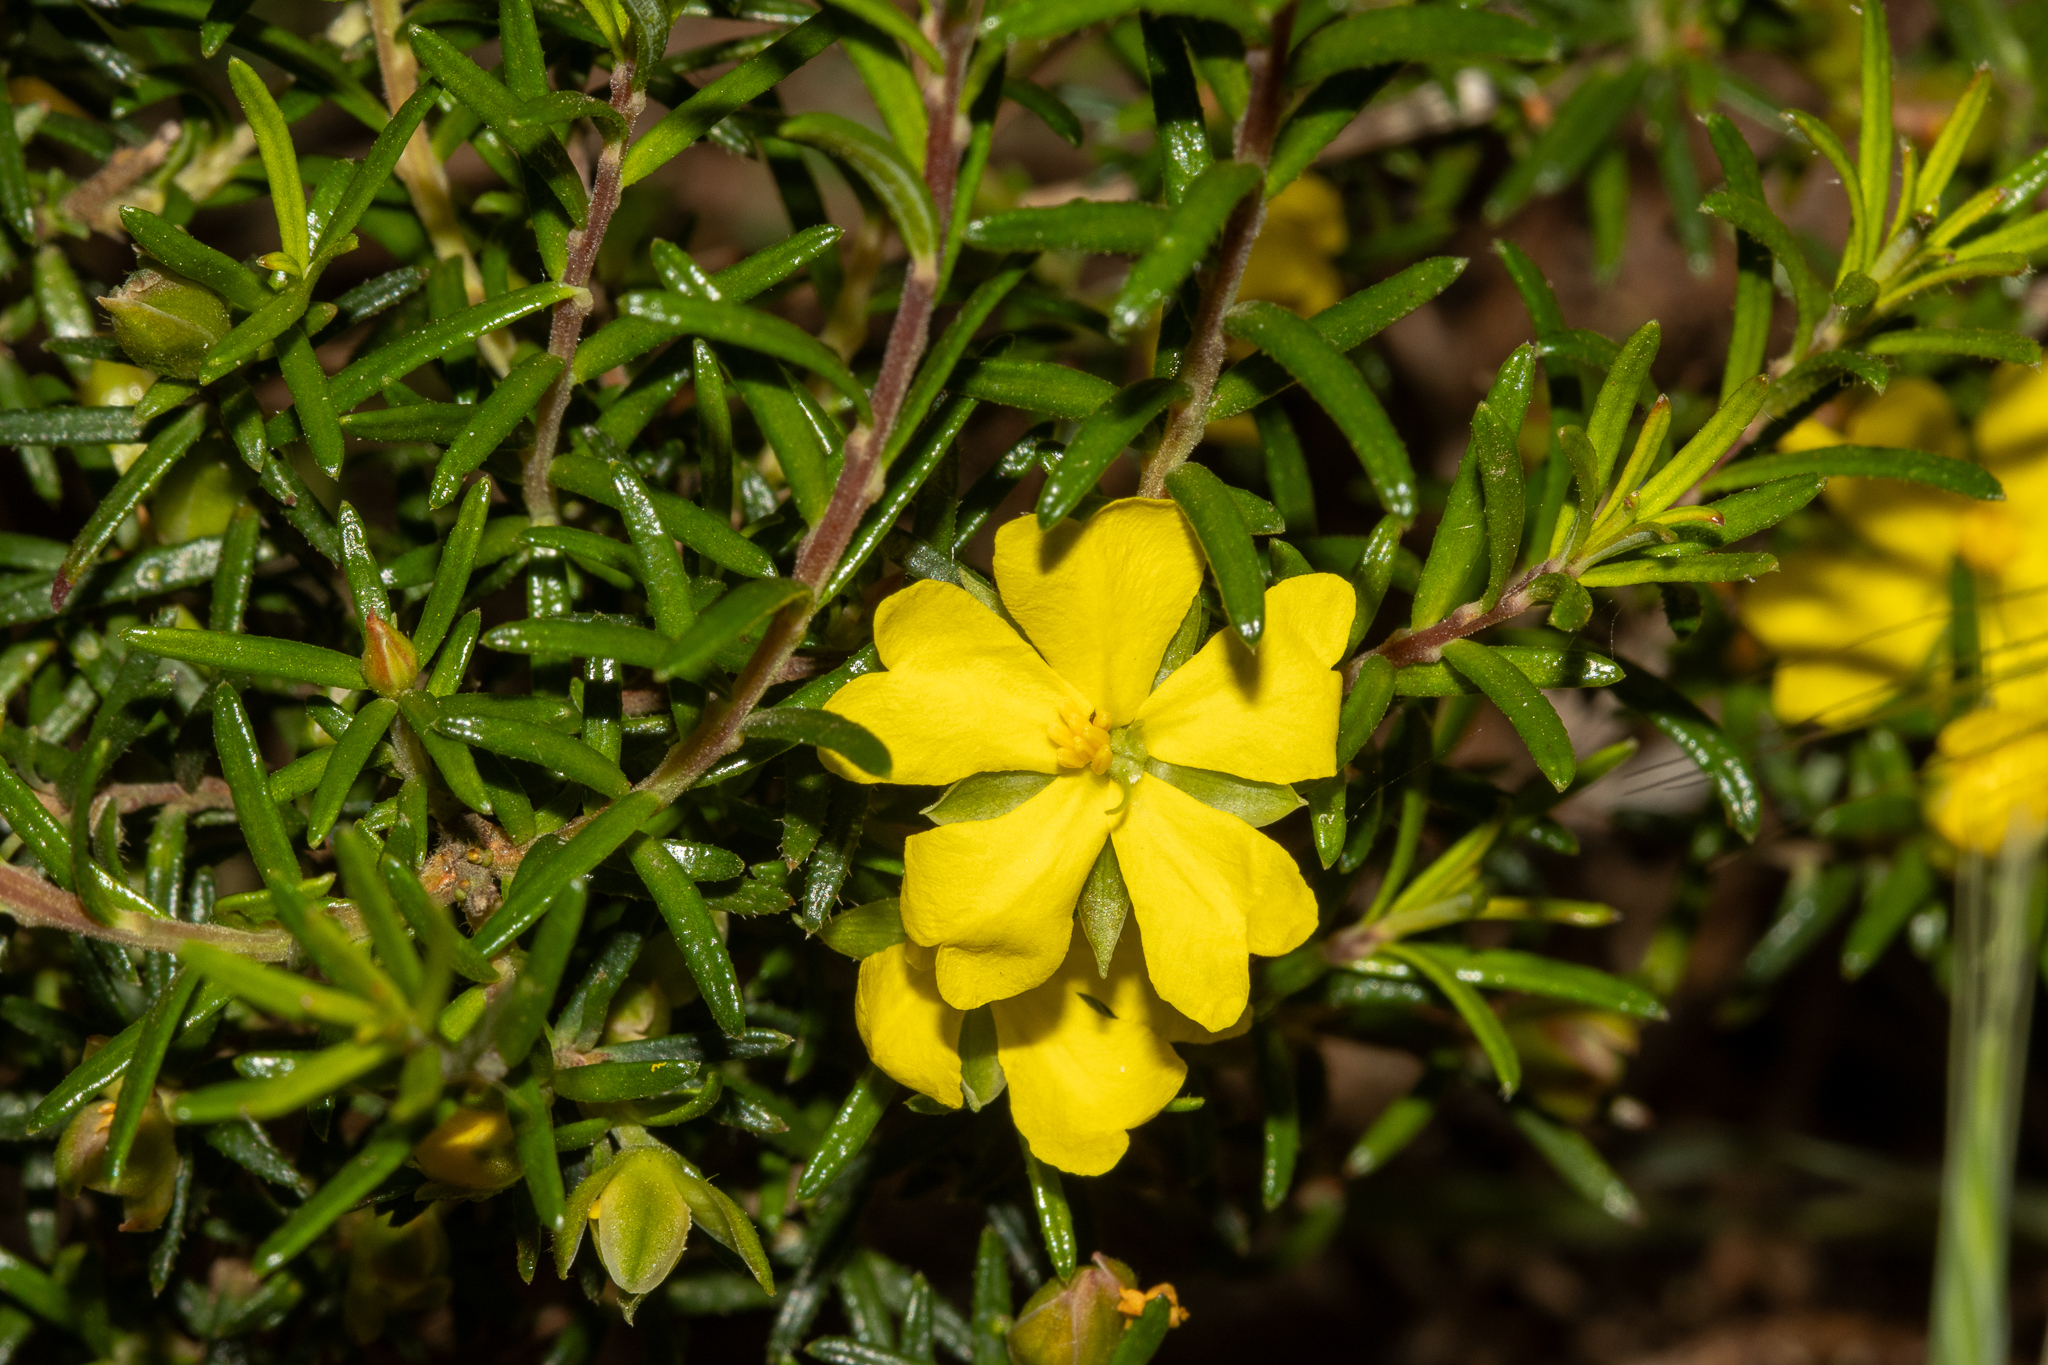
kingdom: Plantae
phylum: Tracheophyta
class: Magnoliopsida
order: Dilleniales
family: Dilleniaceae
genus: Hibbertia
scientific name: Hibbertia riparia
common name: Erect guinea-flower
